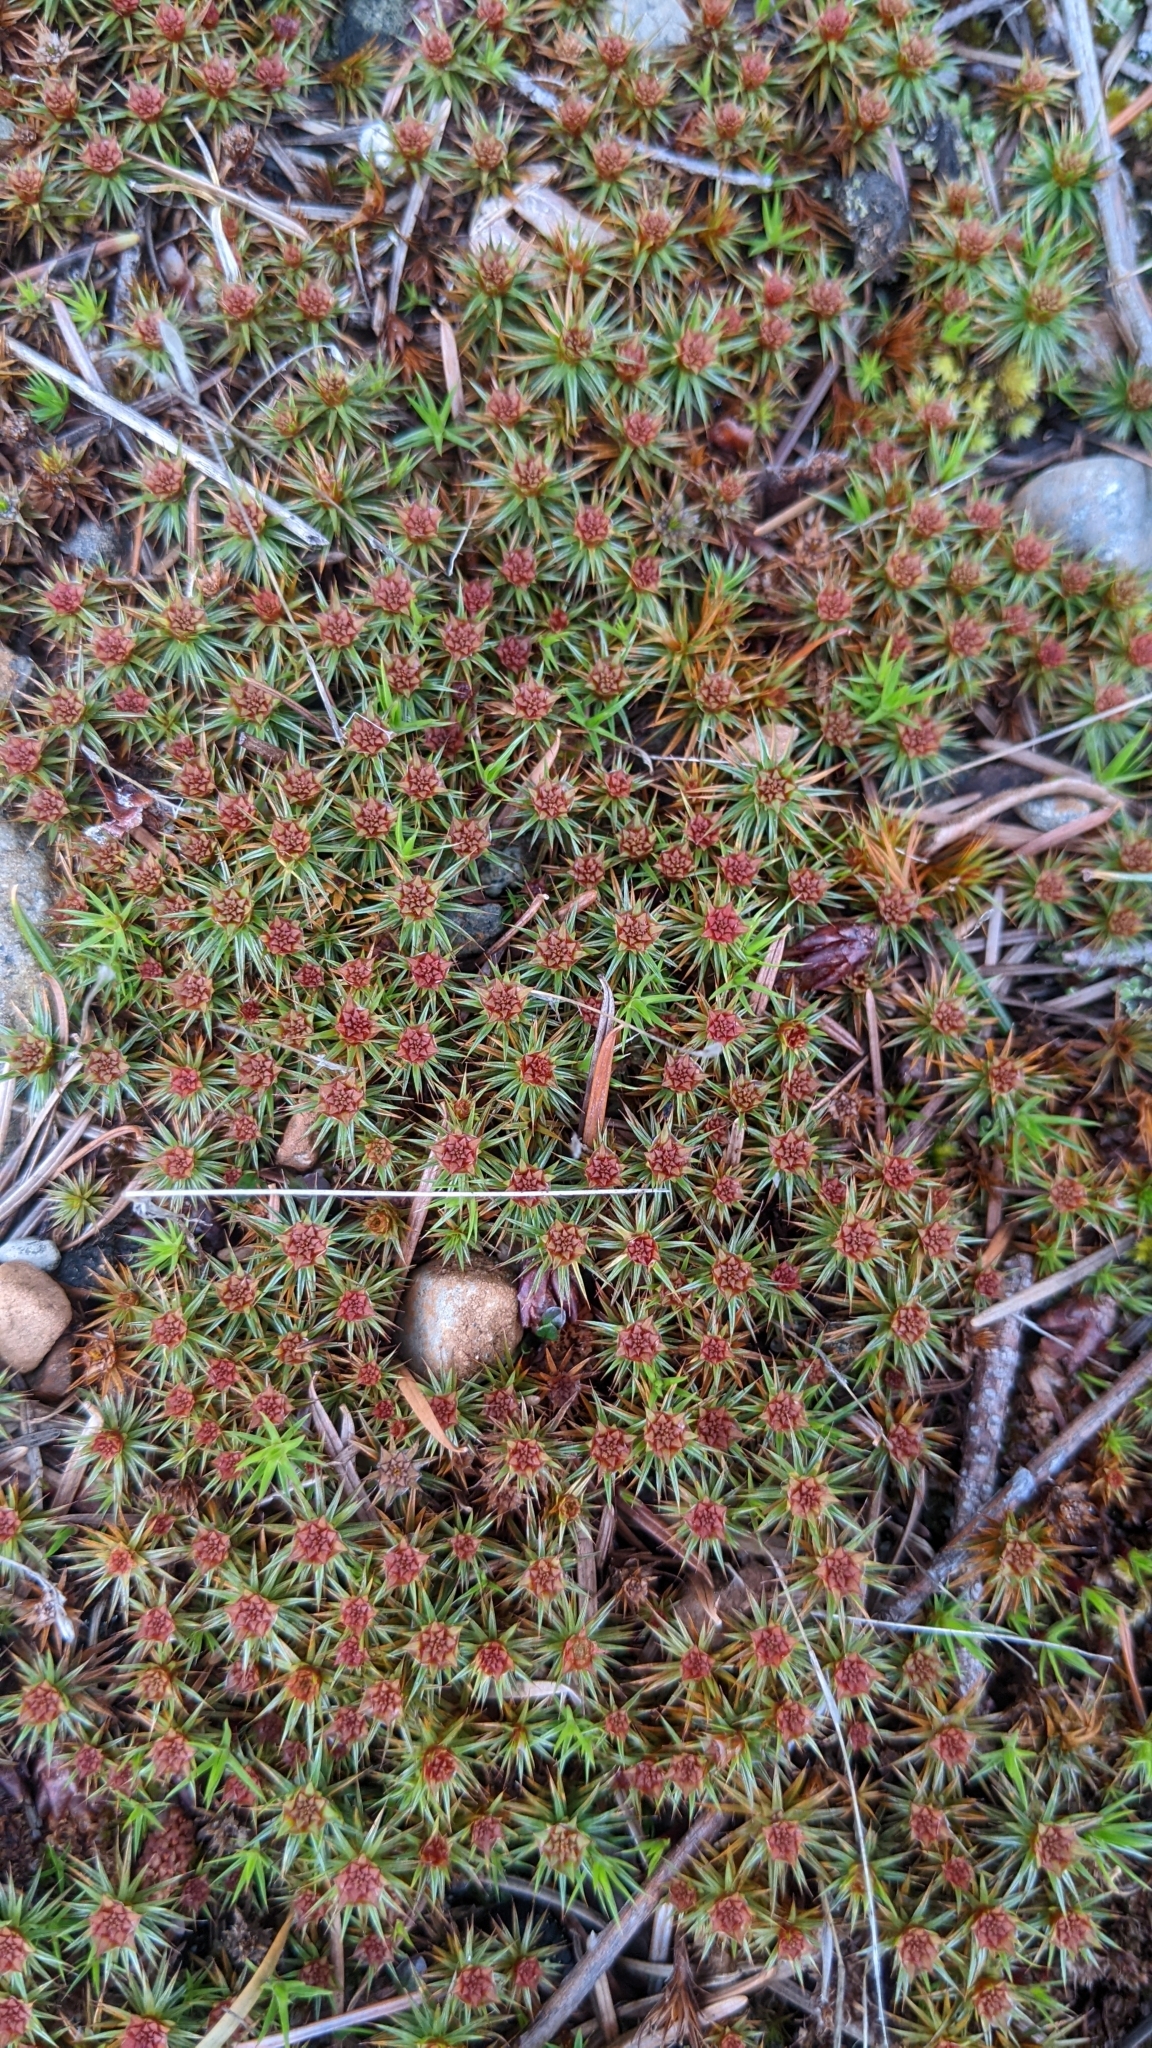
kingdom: Plantae
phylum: Bryophyta
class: Polytrichopsida
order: Polytrichales
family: Polytrichaceae
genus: Polytrichum
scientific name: Polytrichum juniperinum
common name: Juniper haircap moss
